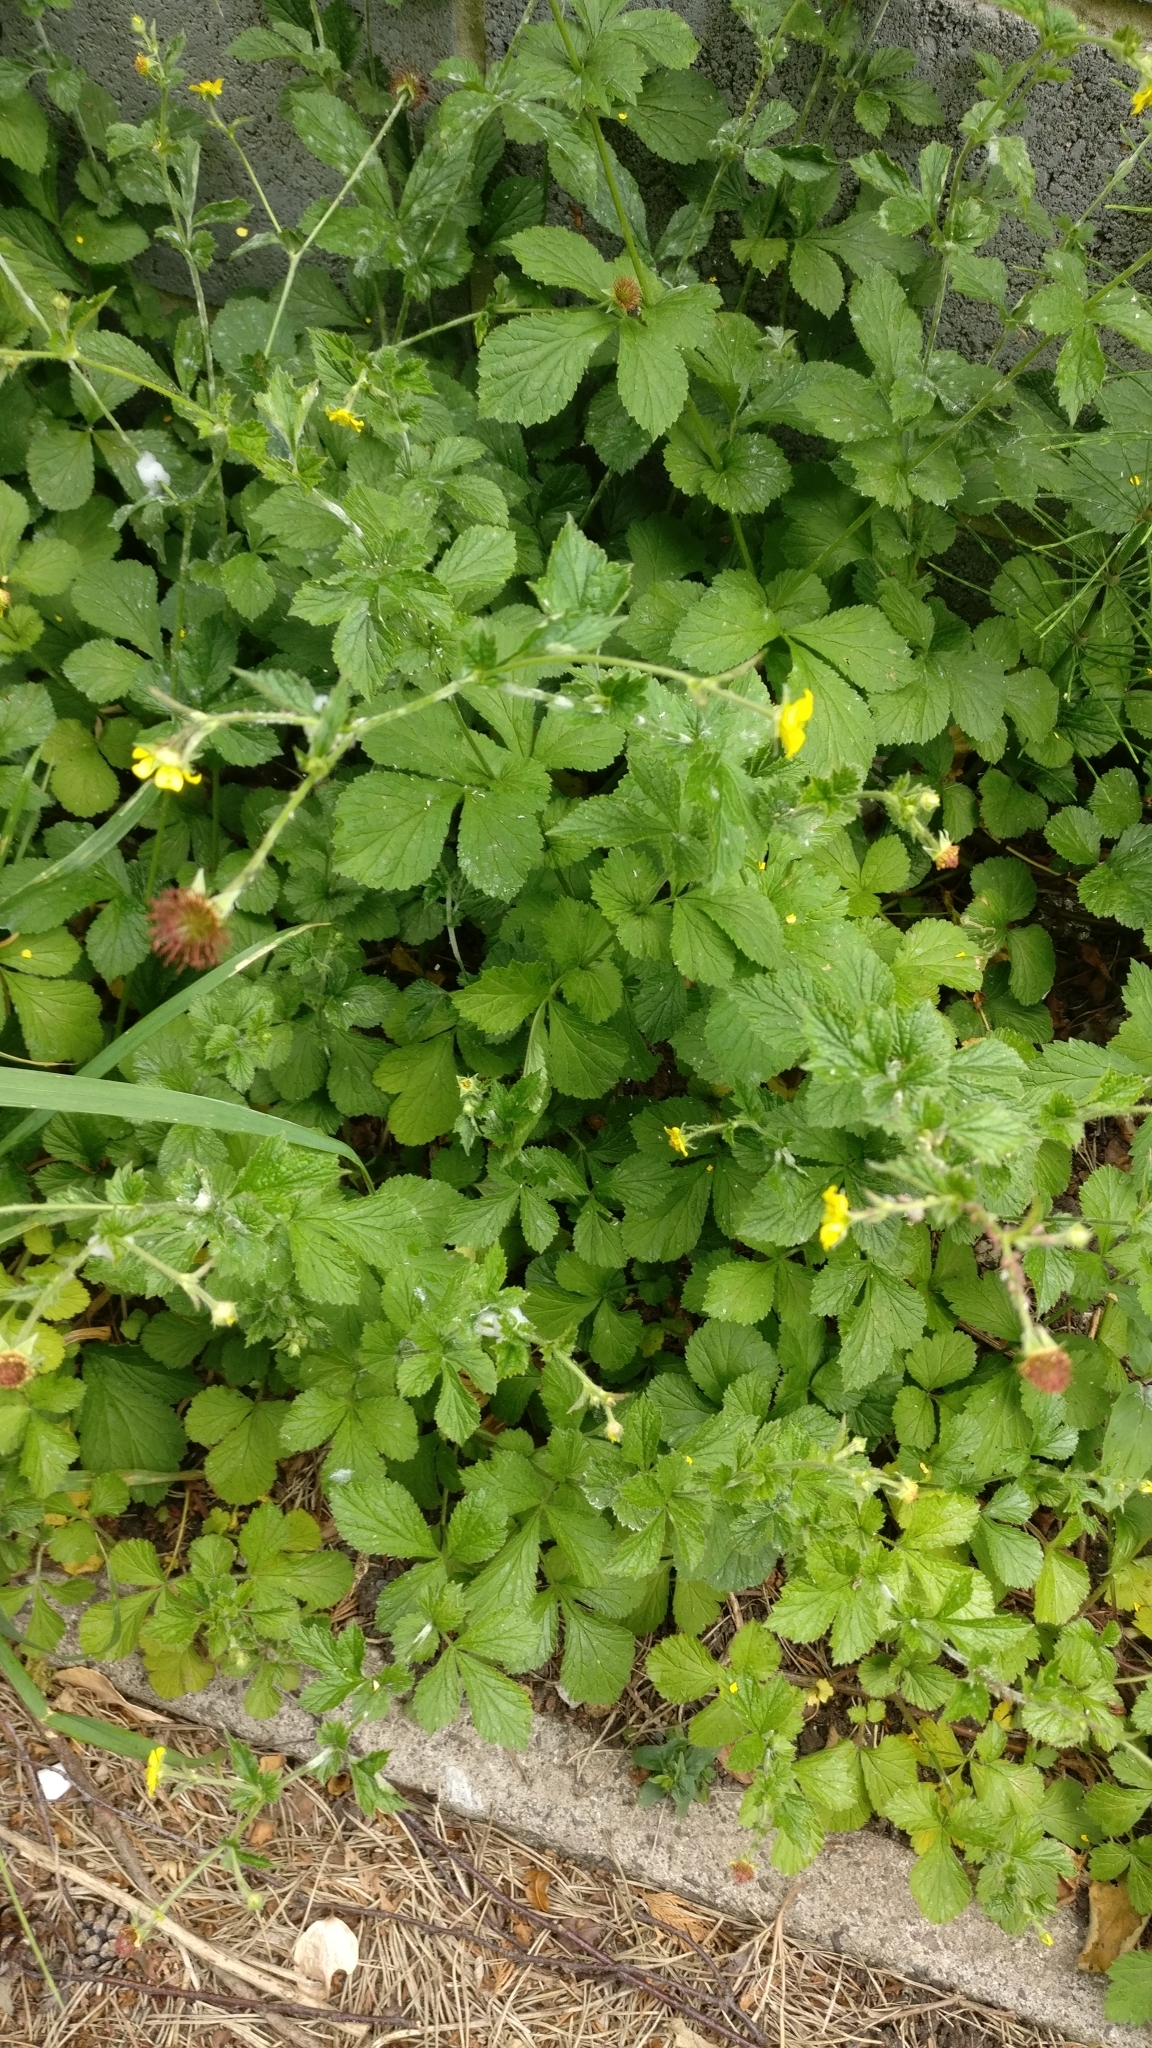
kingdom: Plantae
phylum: Tracheophyta
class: Magnoliopsida
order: Rosales
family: Rosaceae
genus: Geum
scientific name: Geum urbanum
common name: Wood avens
